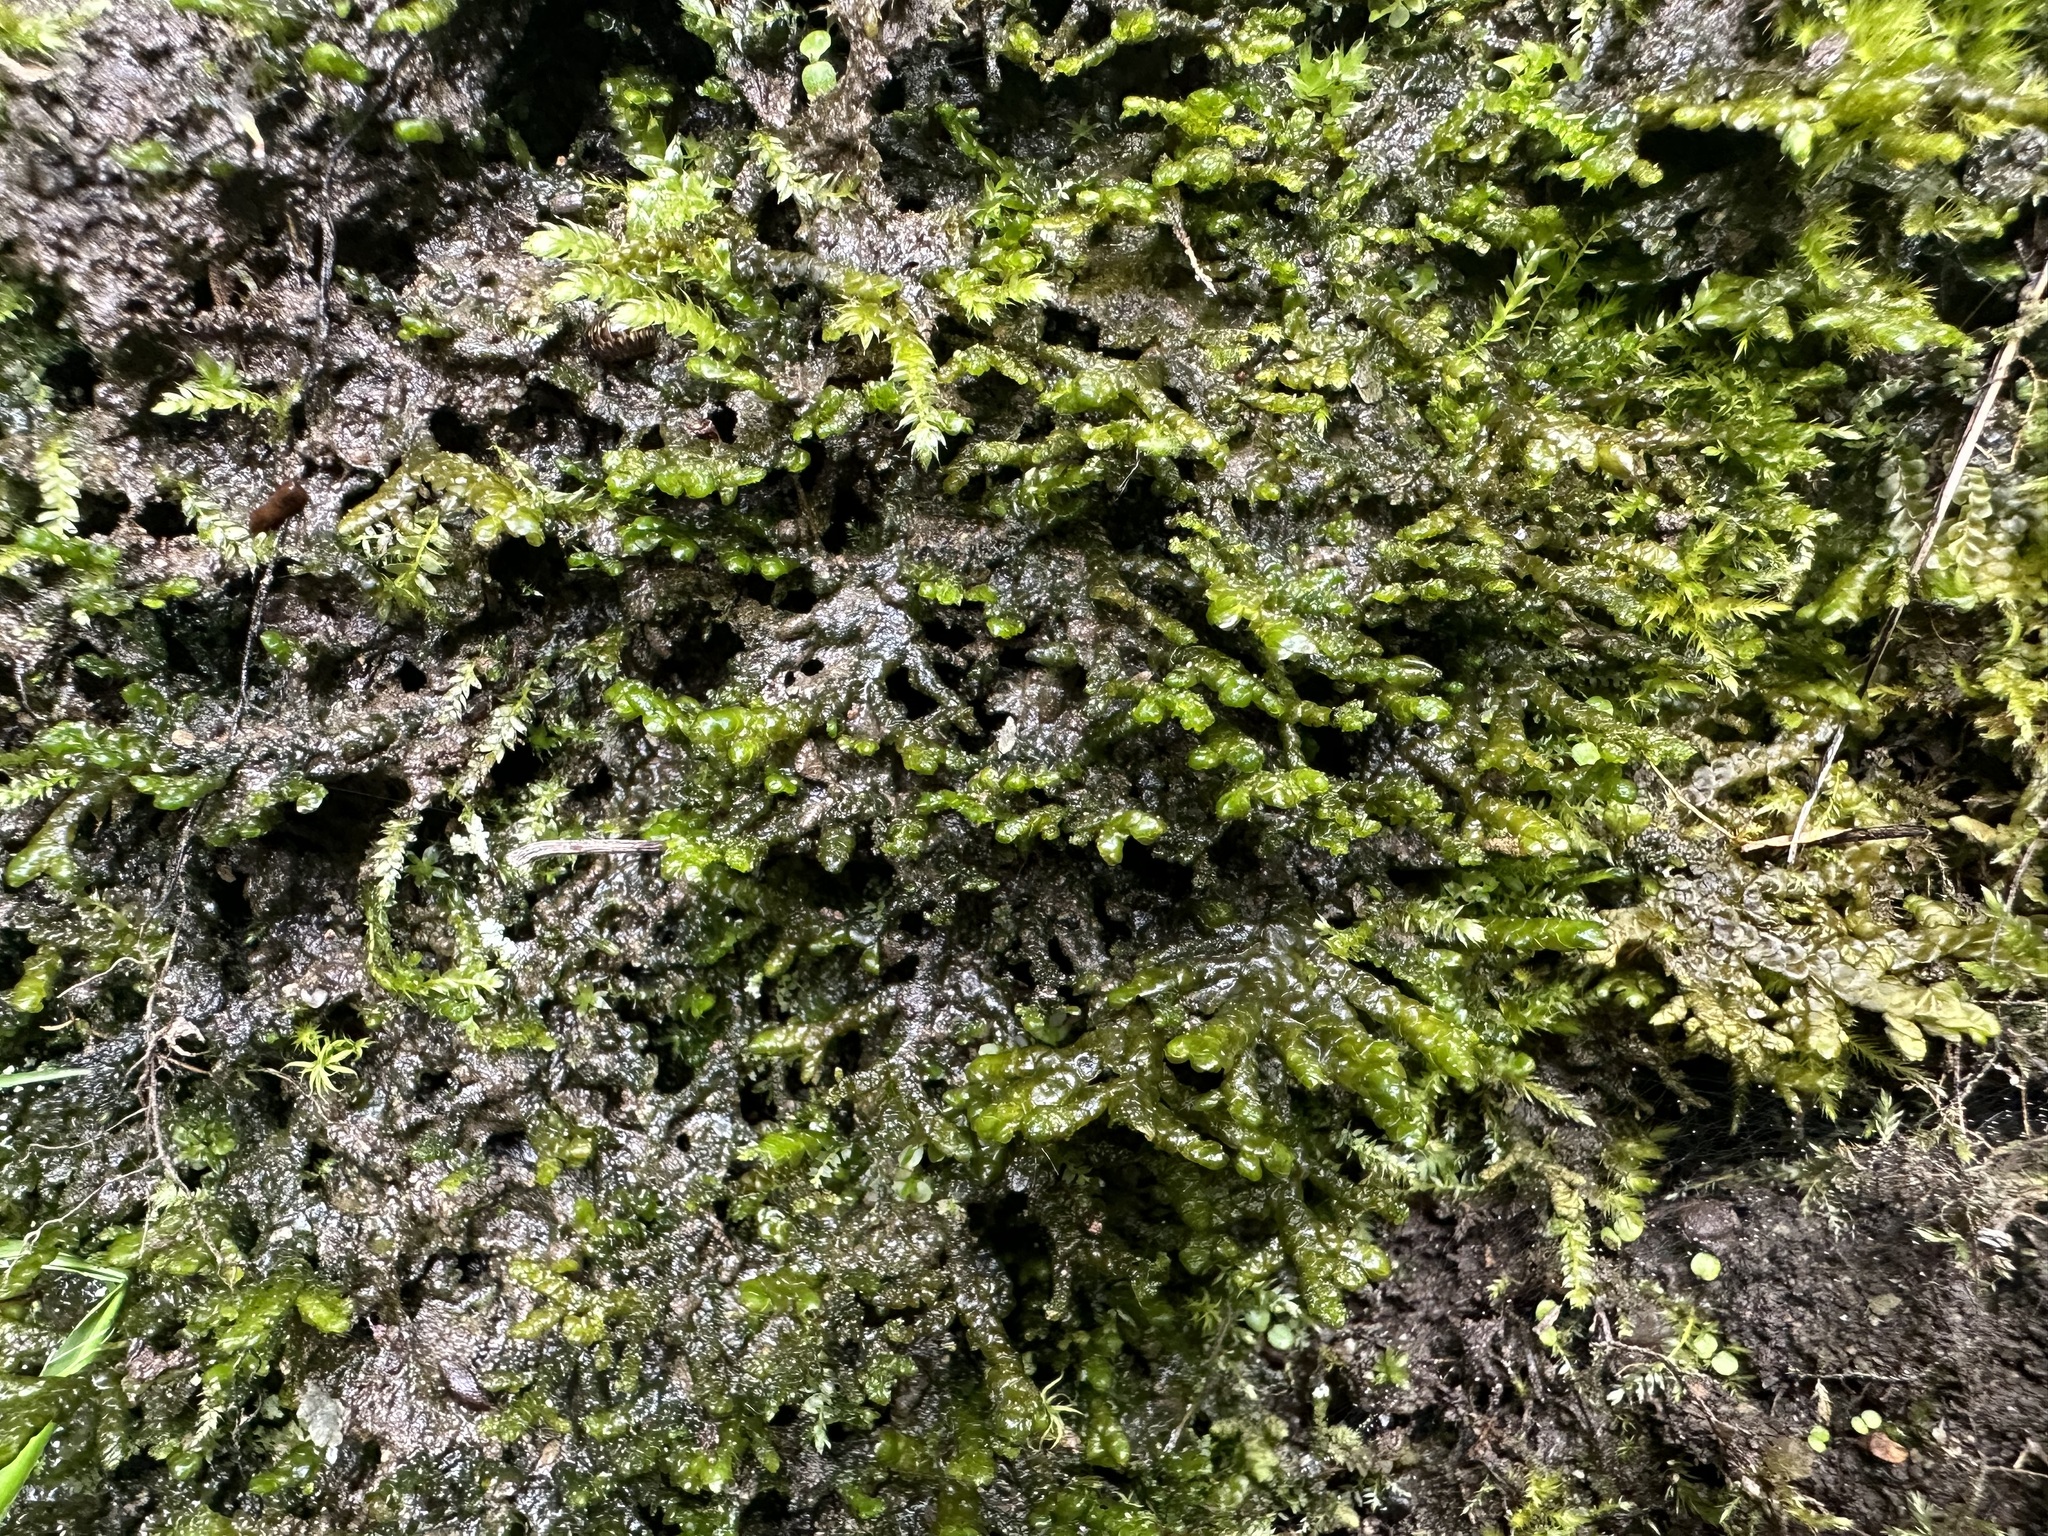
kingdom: Plantae
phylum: Marchantiophyta
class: Jungermanniopsida
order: Porellales
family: Porellaceae
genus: Porella
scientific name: Porella platyphylla
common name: Wall scalewort
